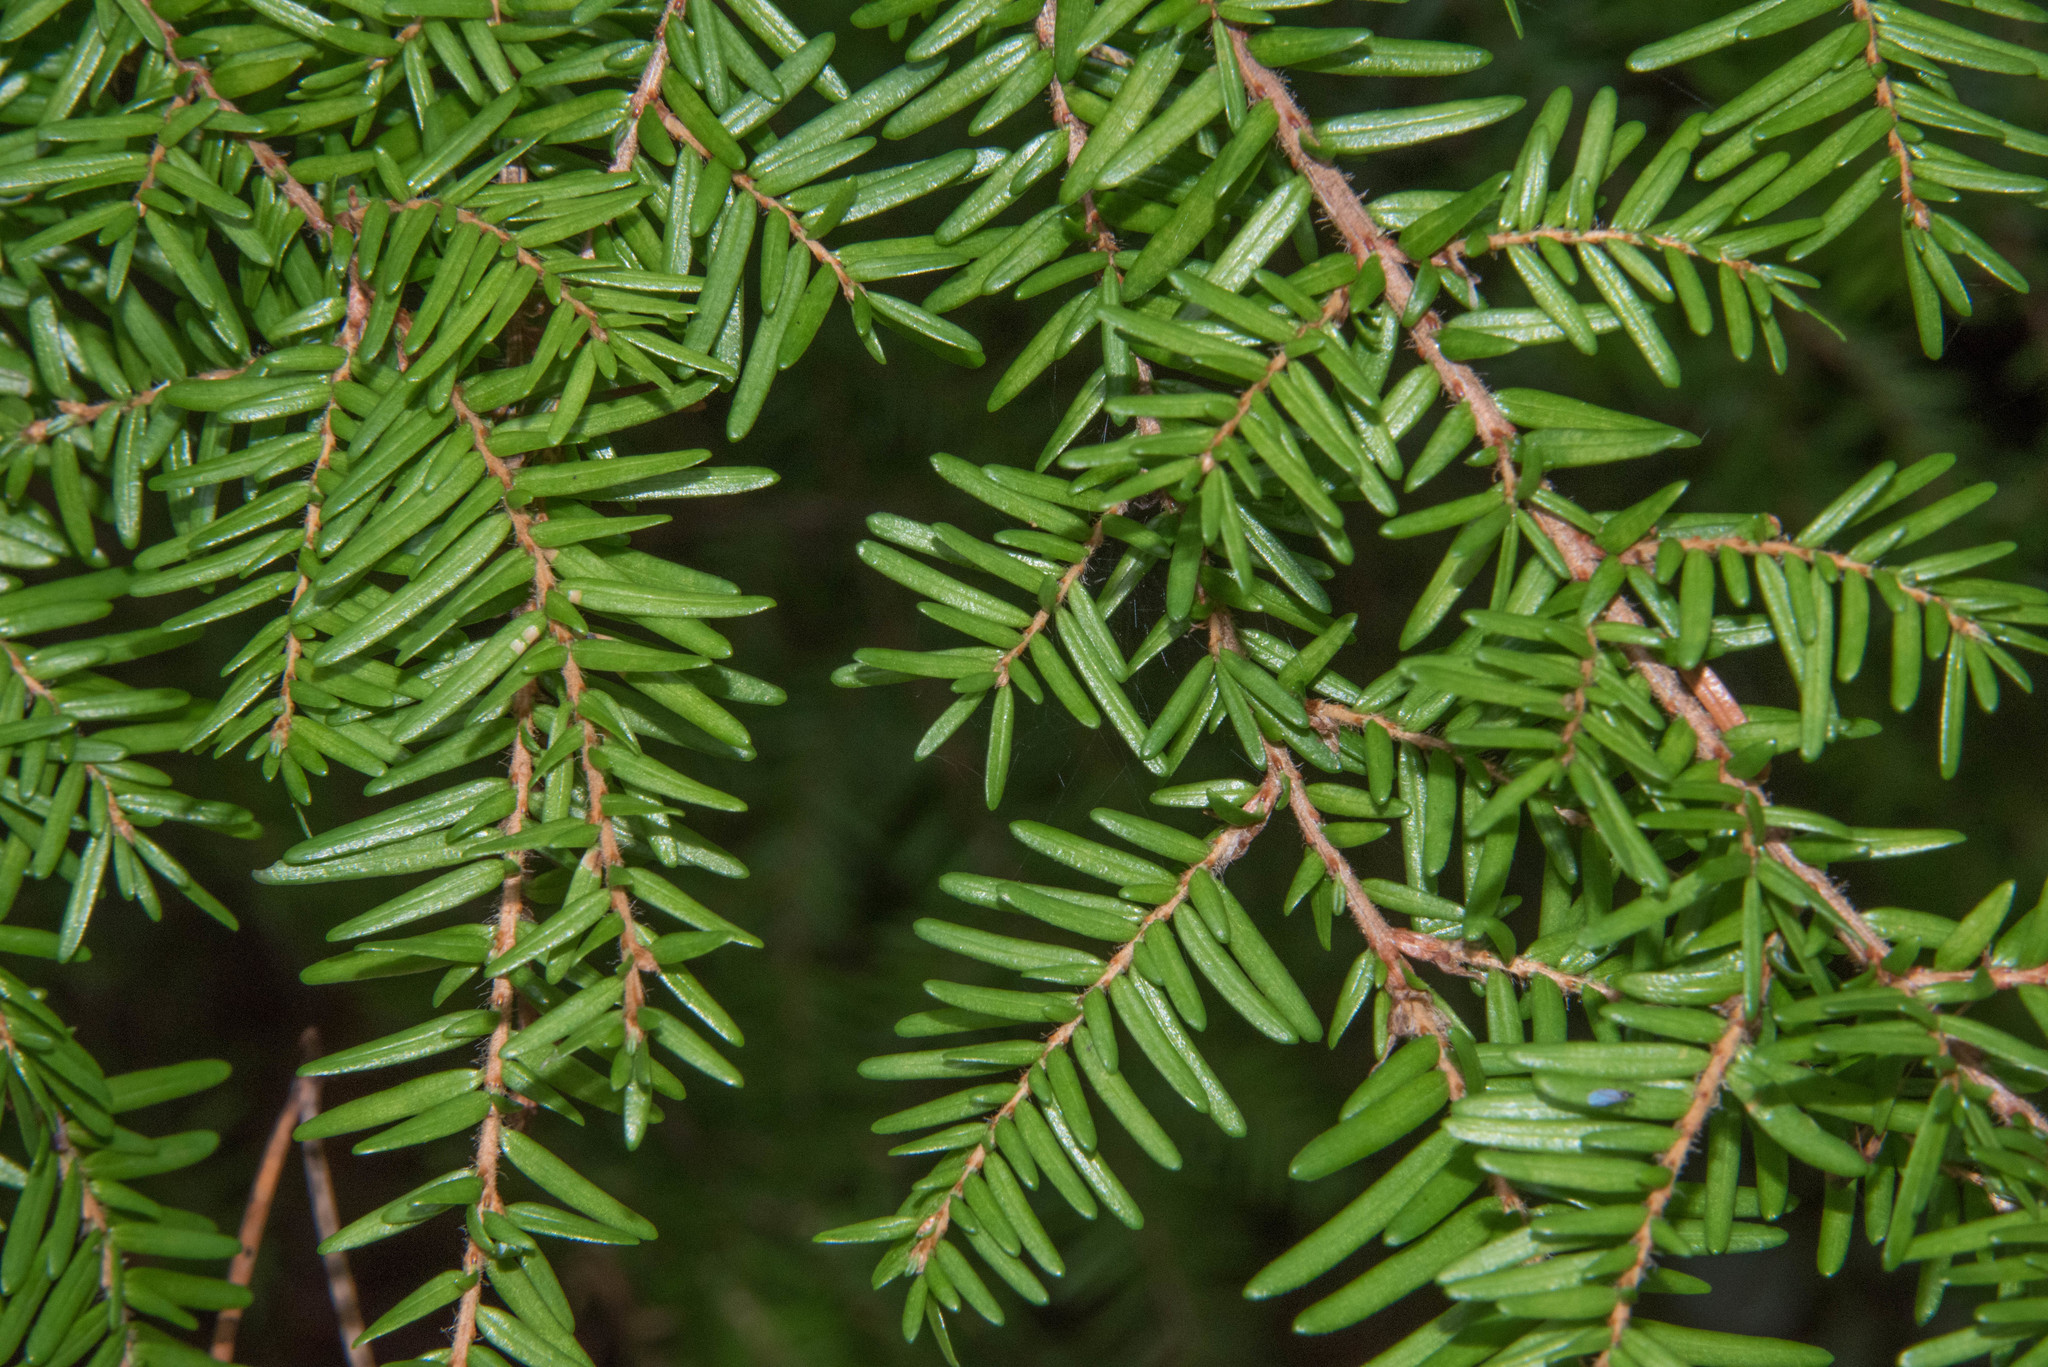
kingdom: Plantae
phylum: Tracheophyta
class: Pinopsida
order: Pinales
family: Pinaceae
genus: Tsuga
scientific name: Tsuga heterophylla
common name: Western hemlock
